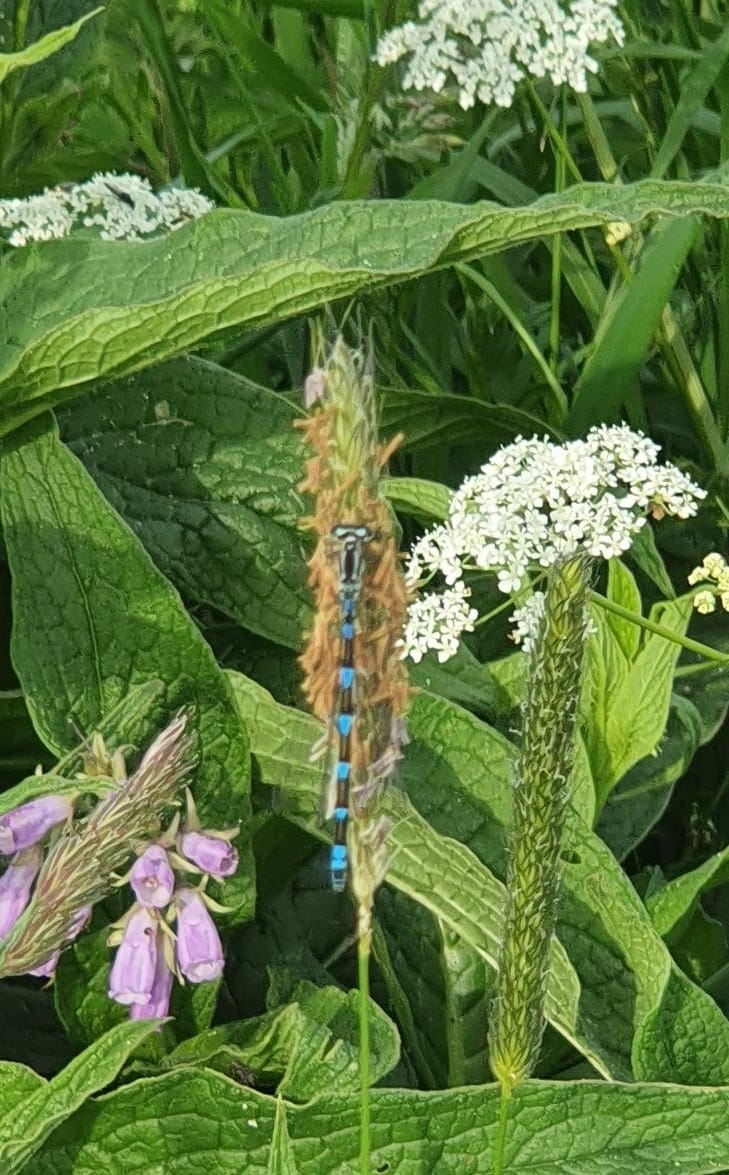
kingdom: Animalia
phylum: Arthropoda
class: Insecta
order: Odonata
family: Coenagrionidae
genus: Coenagrion
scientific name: Coenagrion pulchellum
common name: Variable bluet
